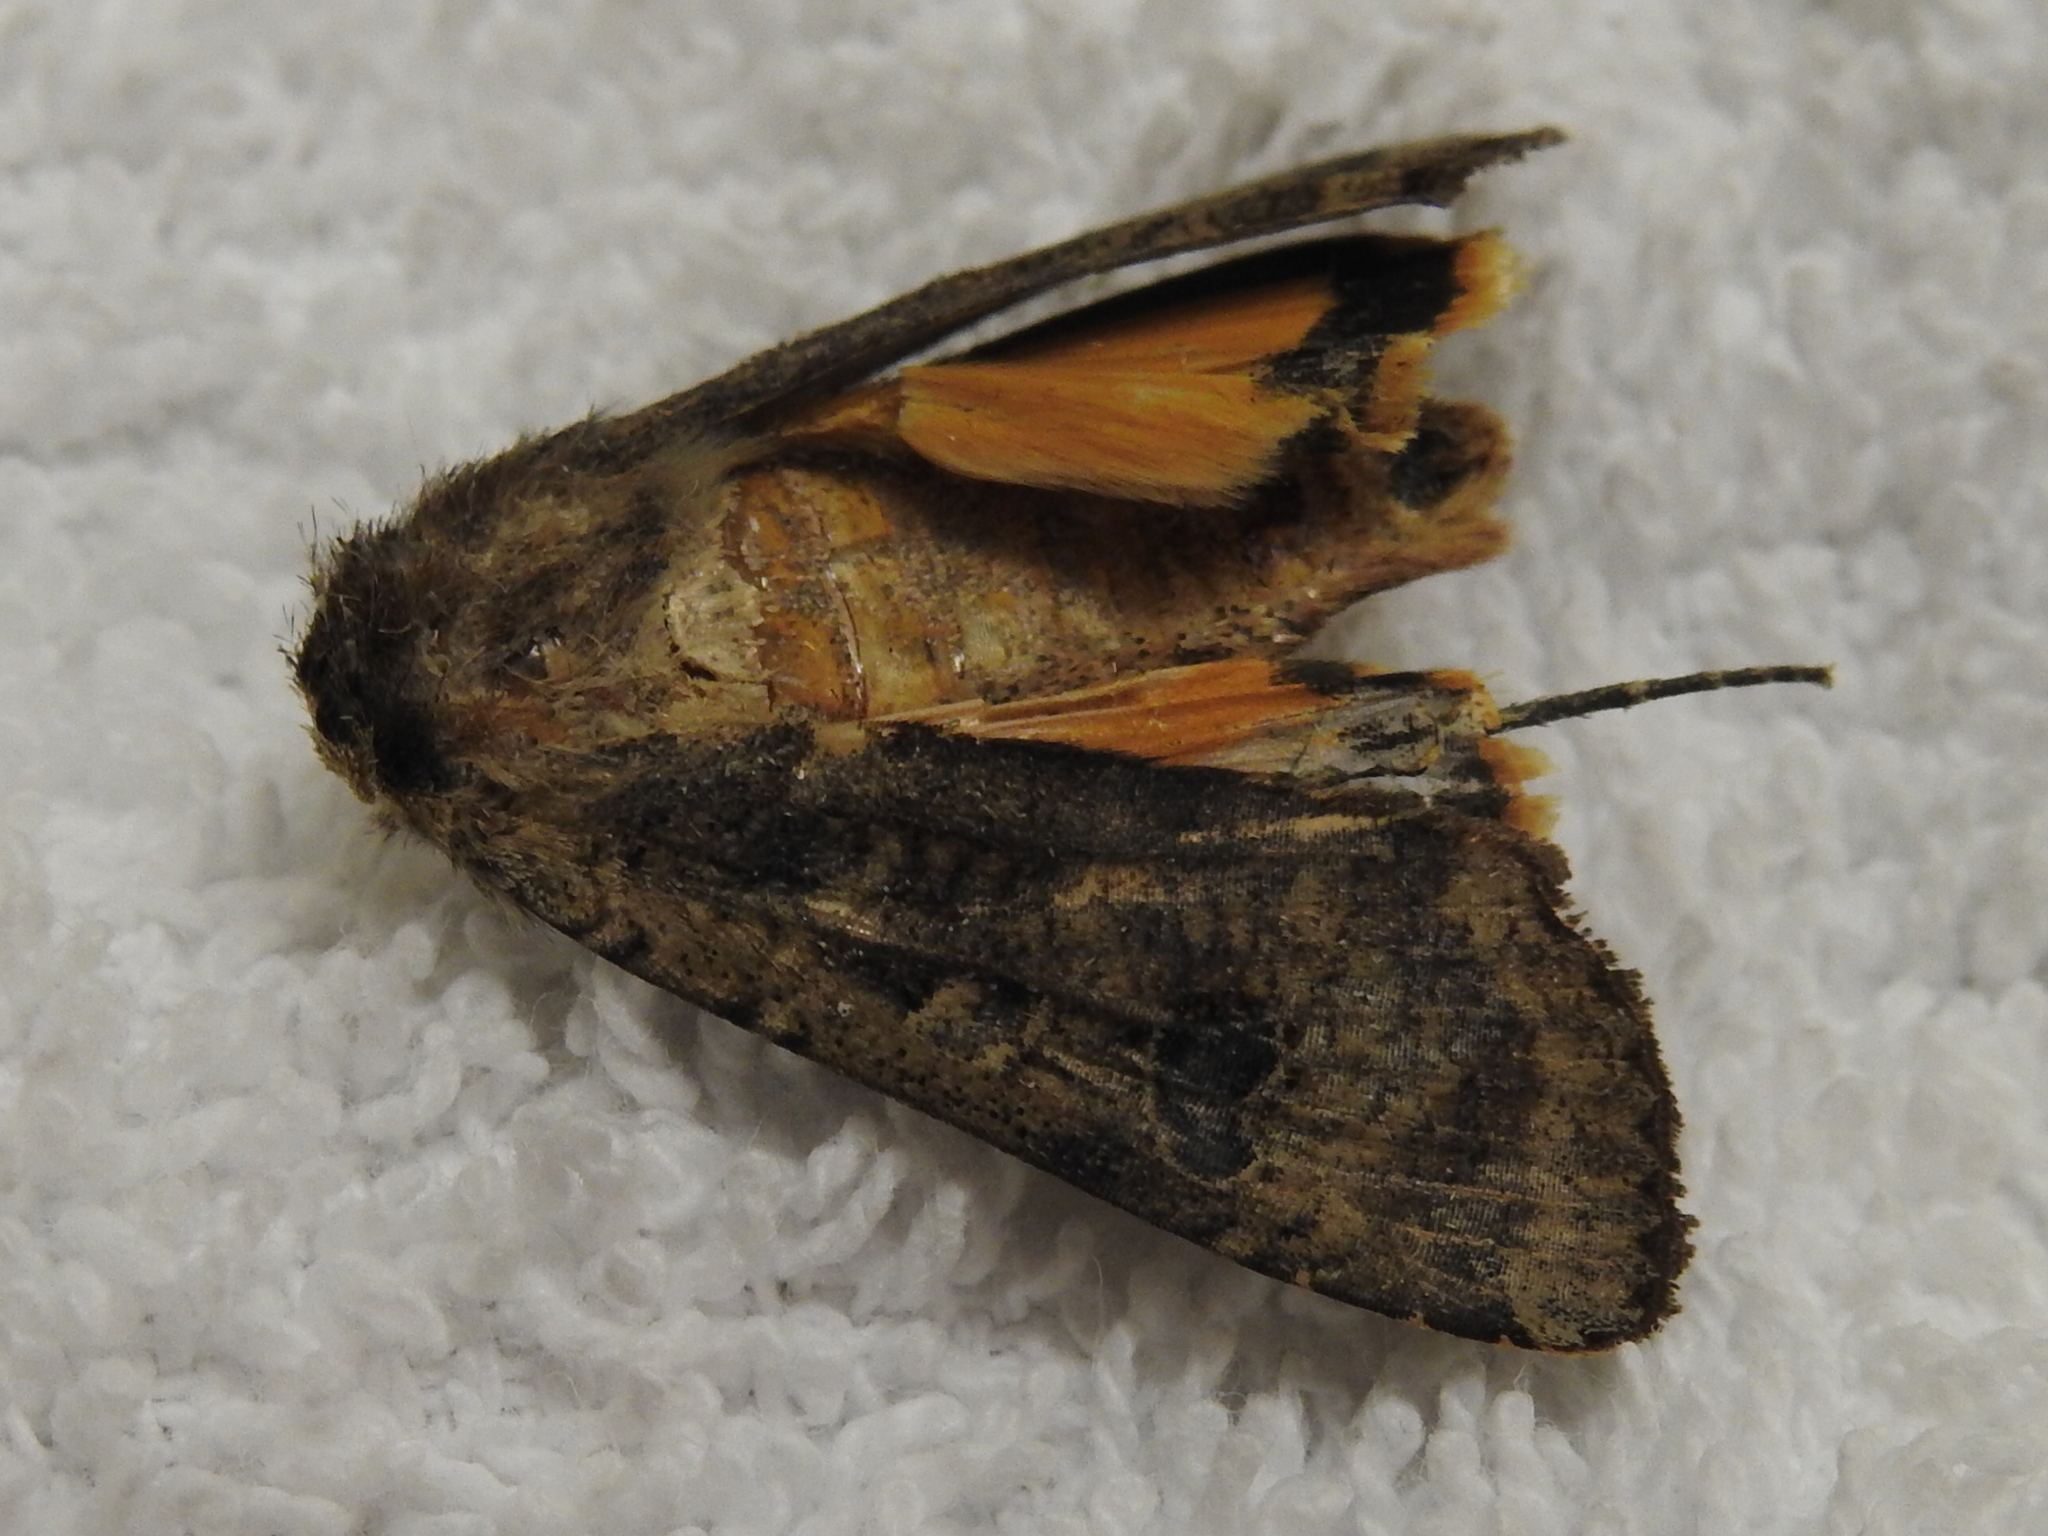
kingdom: Animalia
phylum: Arthropoda
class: Insecta
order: Lepidoptera
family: Noctuidae
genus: Noctua
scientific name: Noctua pronuba
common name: Large yellow underwing
